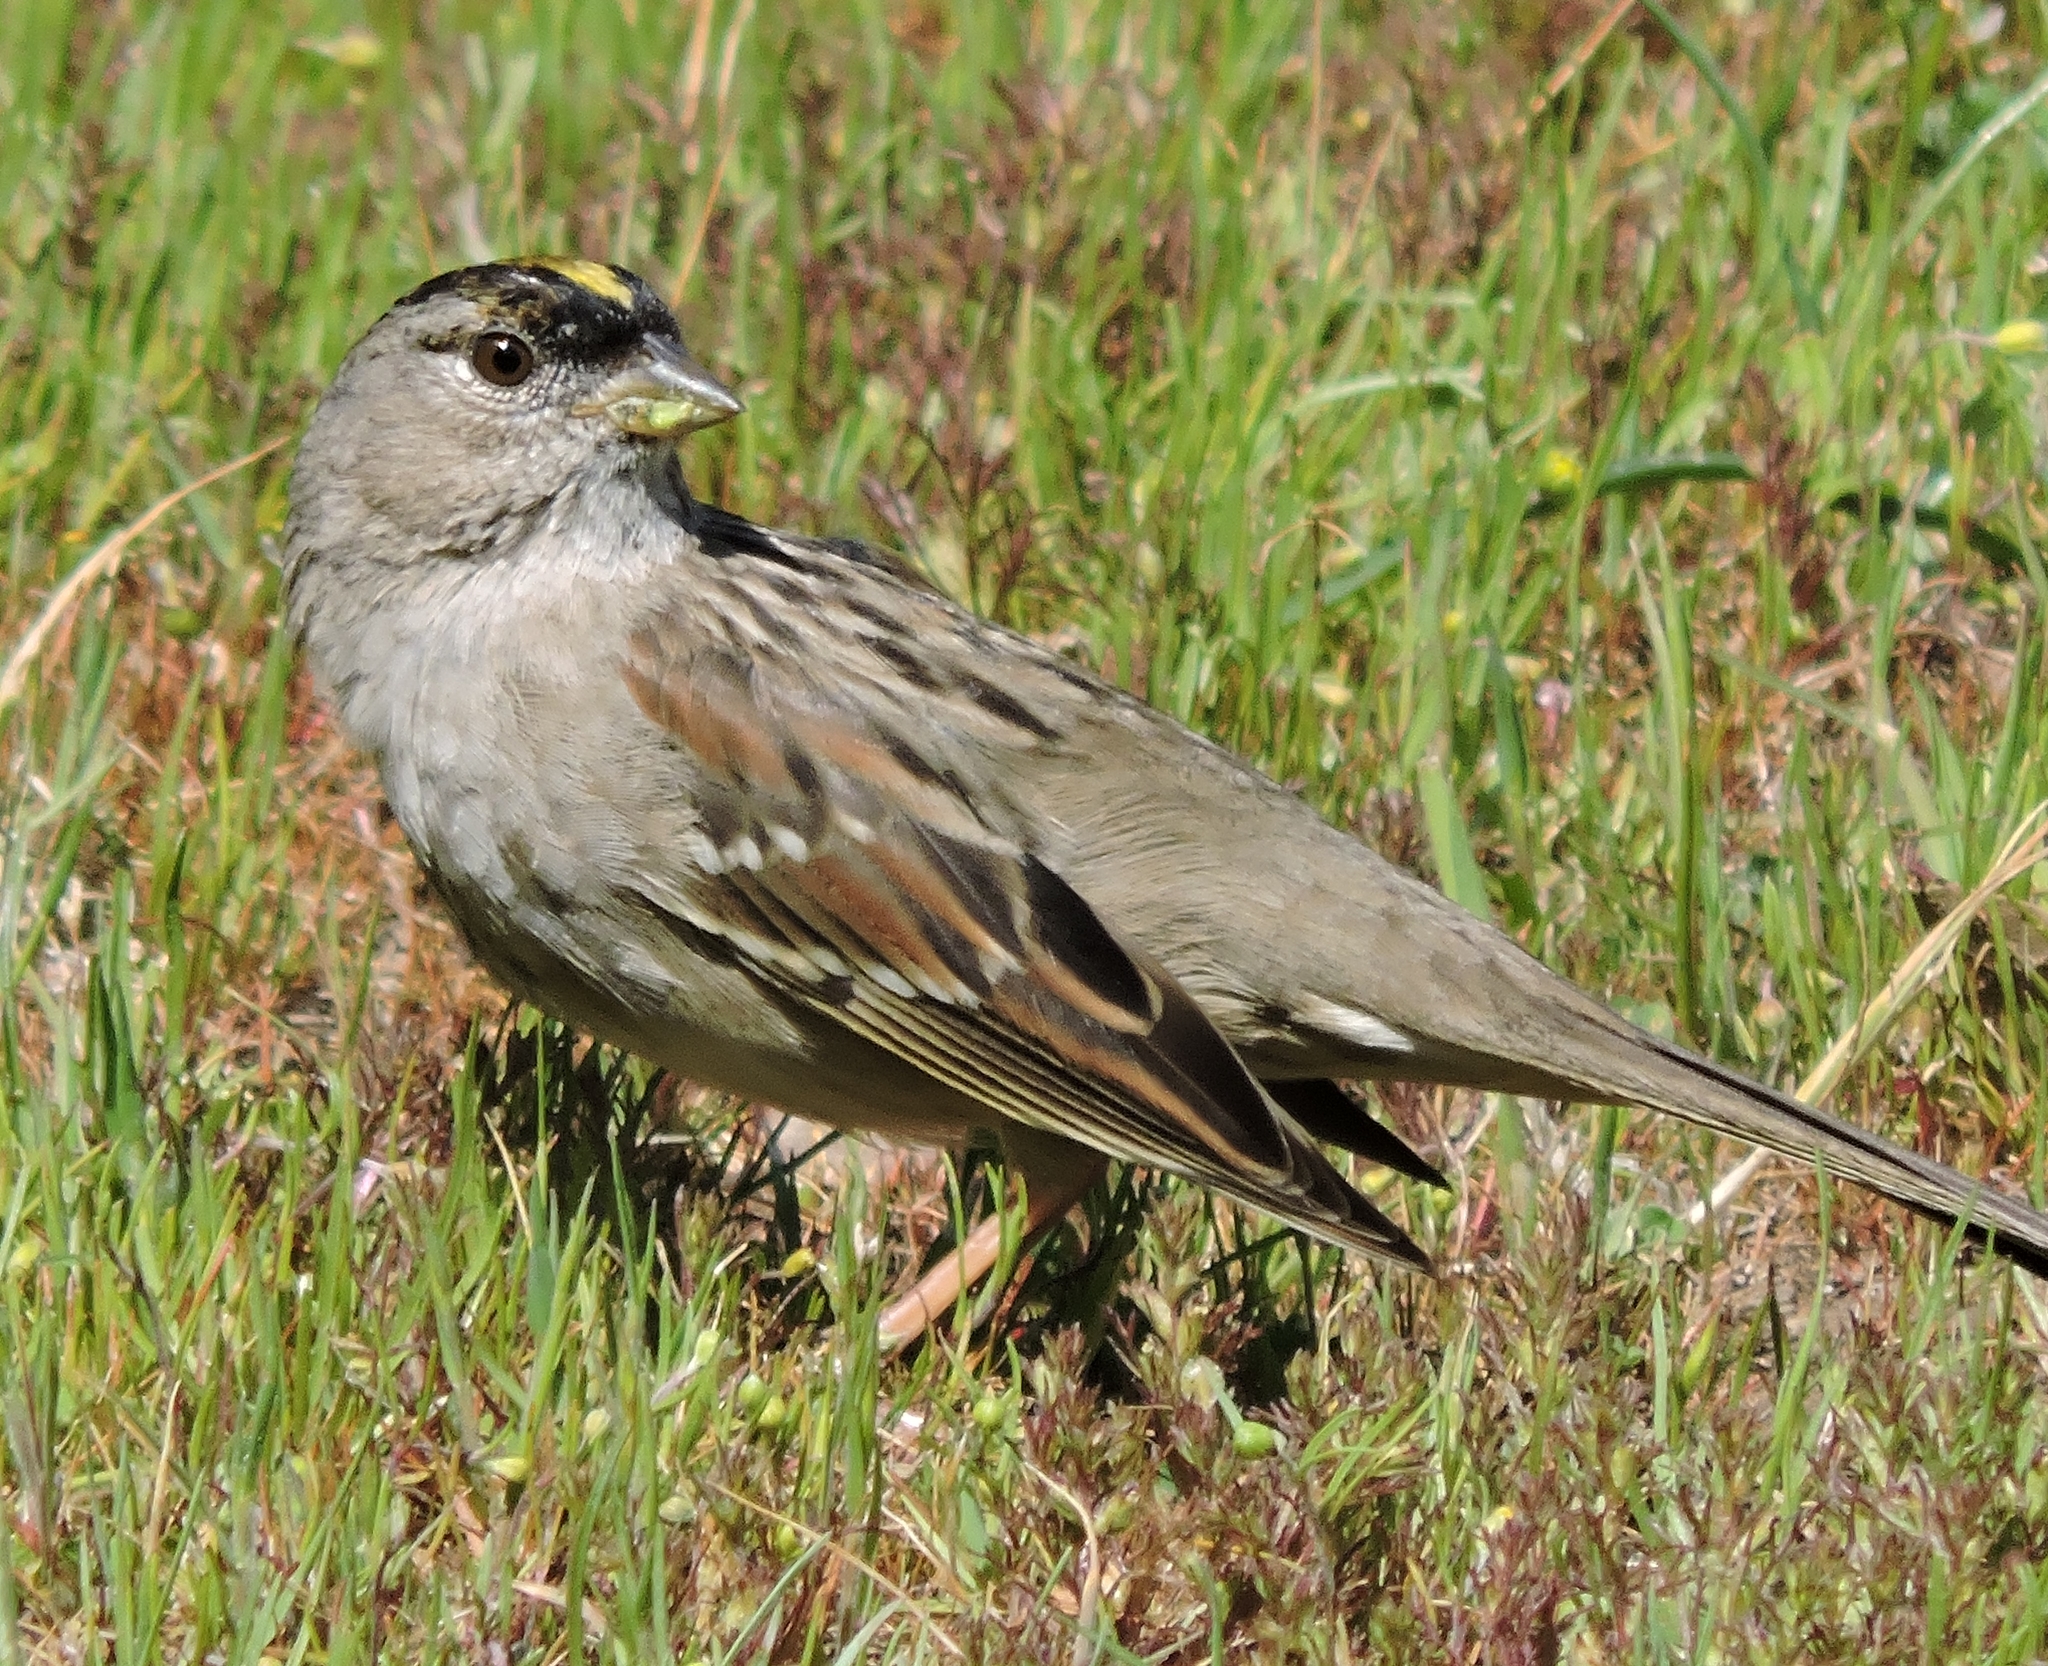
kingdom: Animalia
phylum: Chordata
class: Aves
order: Passeriformes
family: Passerellidae
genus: Zonotrichia
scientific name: Zonotrichia atricapilla
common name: Golden-crowned sparrow
